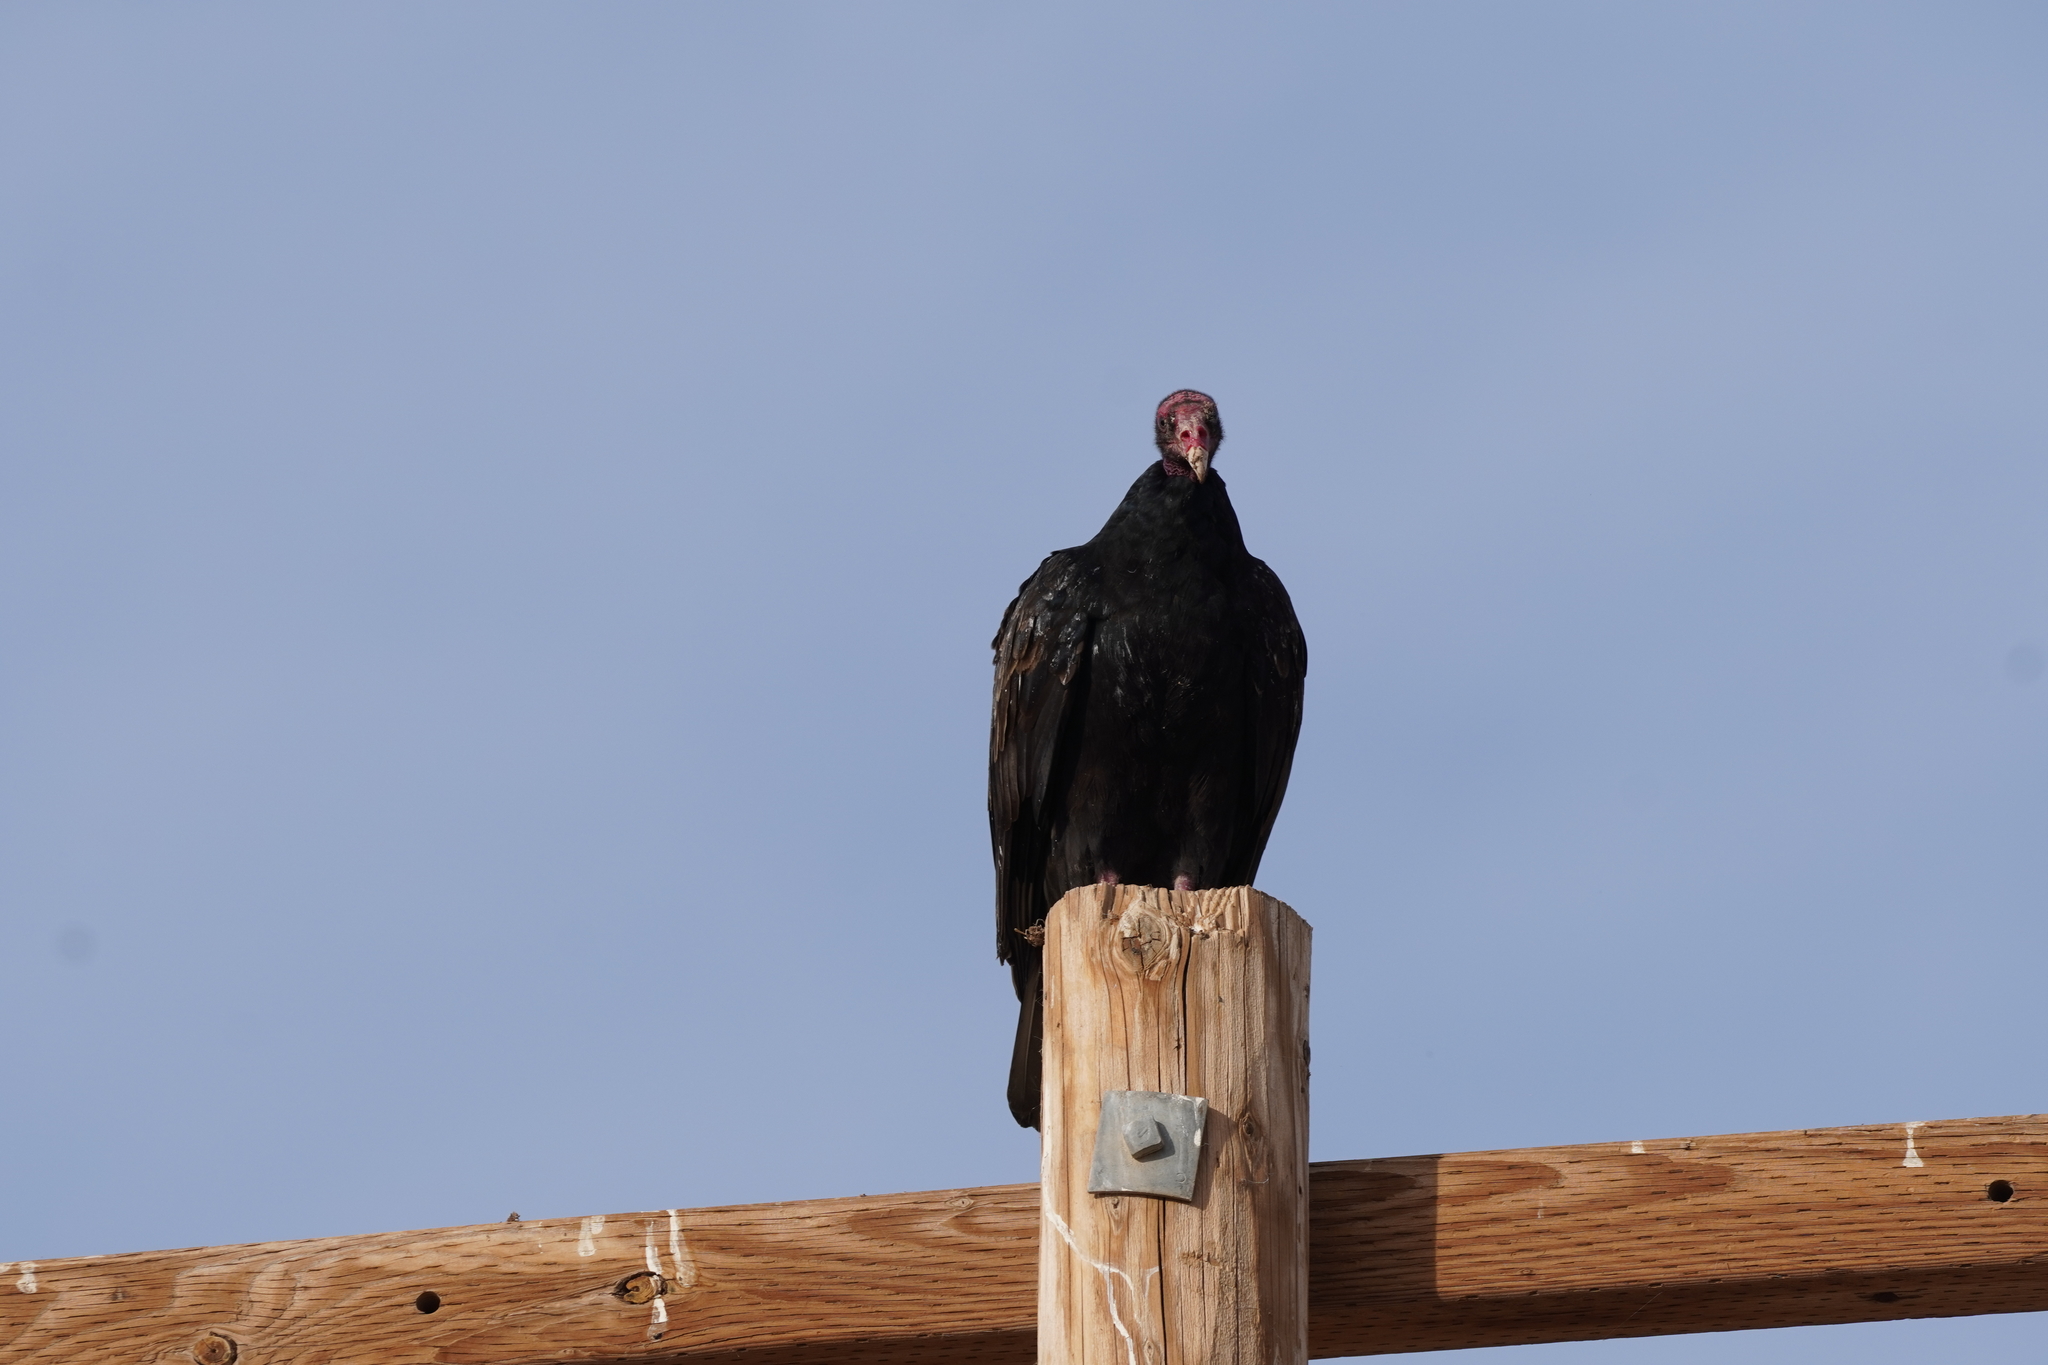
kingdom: Animalia
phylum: Chordata
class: Aves
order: Accipitriformes
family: Cathartidae
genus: Cathartes
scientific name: Cathartes aura
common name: Turkey vulture
